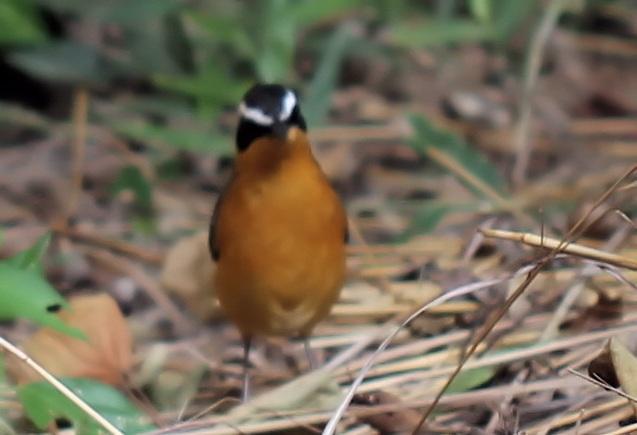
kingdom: Animalia
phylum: Chordata
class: Aves
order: Passeriformes
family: Muscicapidae
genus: Cossypha
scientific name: Cossypha heuglini
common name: White-browed robin-chat
